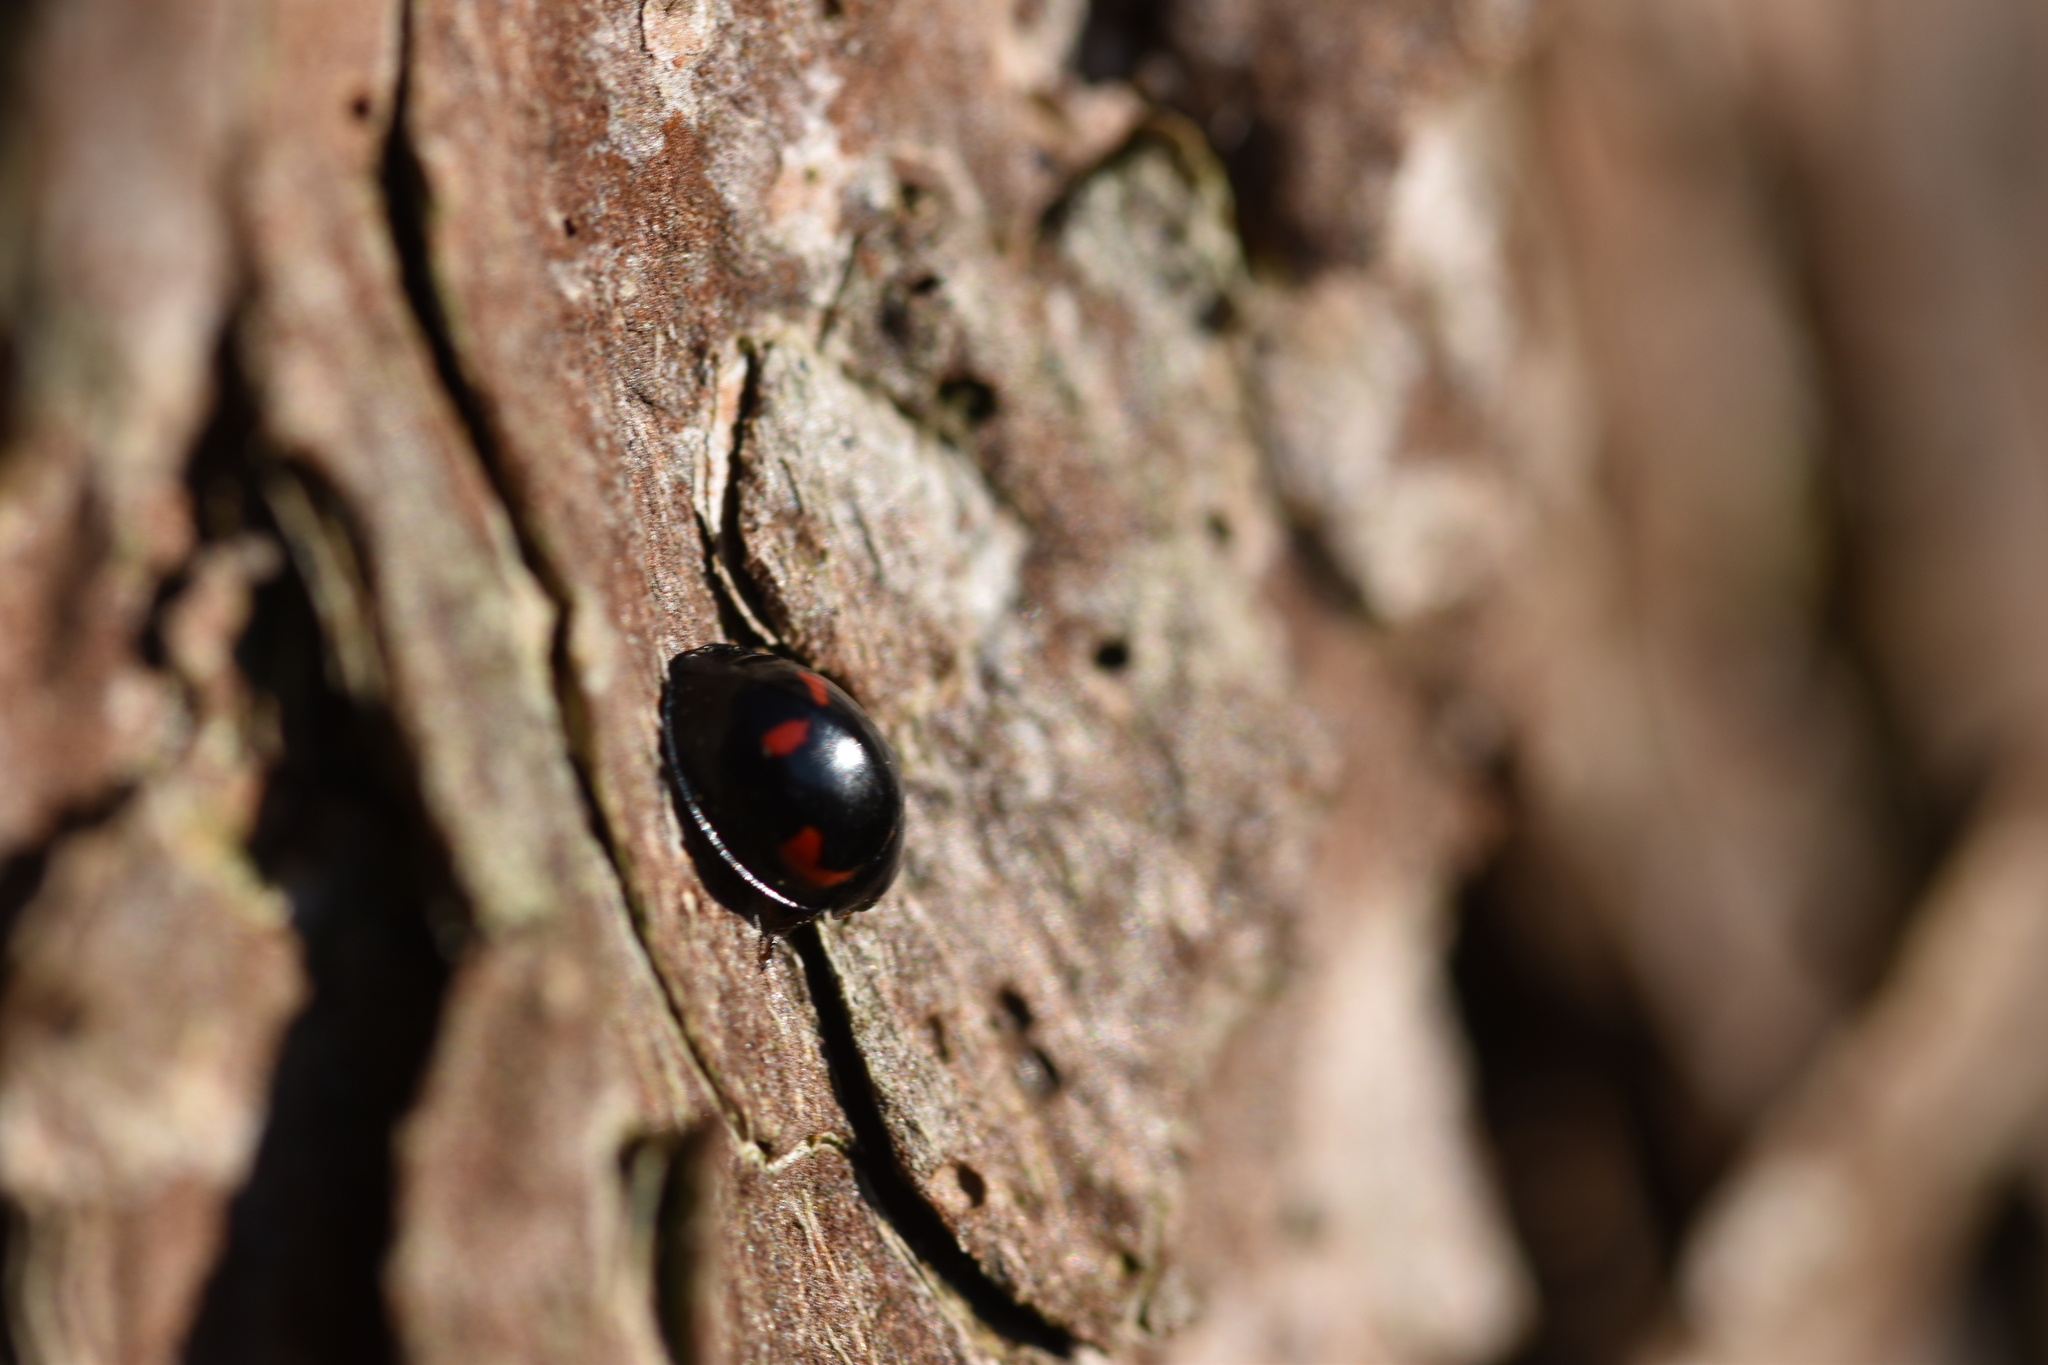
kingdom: Animalia
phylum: Arthropoda
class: Insecta
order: Coleoptera
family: Coccinellidae
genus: Brumus
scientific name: Brumus quadripustulatus
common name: Ladybird beetle
